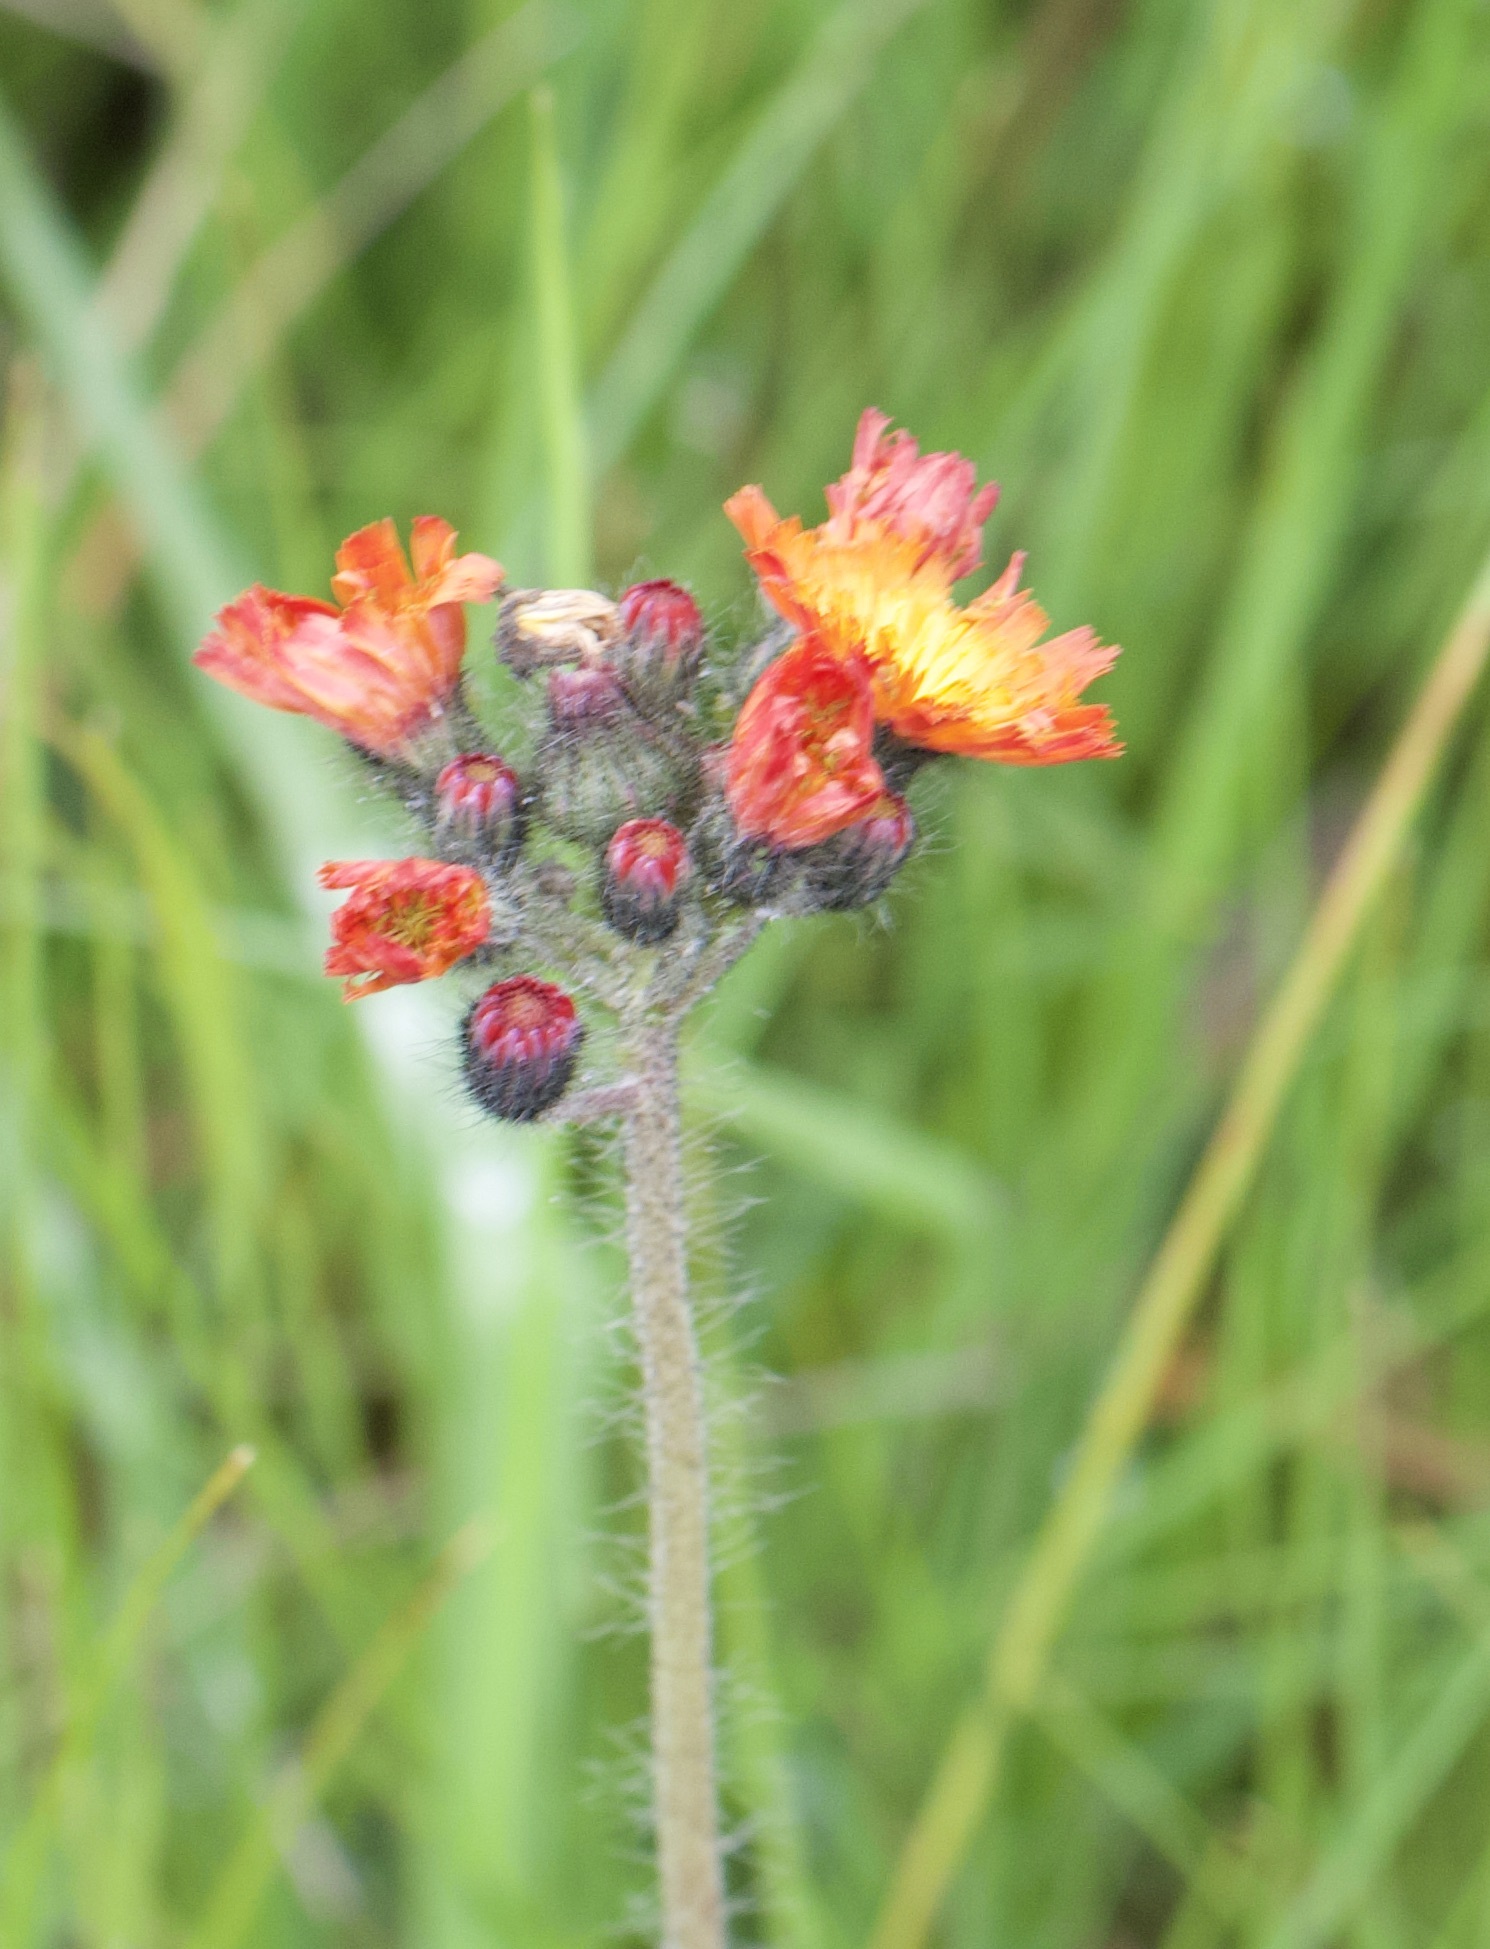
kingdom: Plantae
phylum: Tracheophyta
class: Magnoliopsida
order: Asterales
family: Asteraceae
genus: Pilosella
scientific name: Pilosella aurantiaca
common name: Fox-and-cubs
